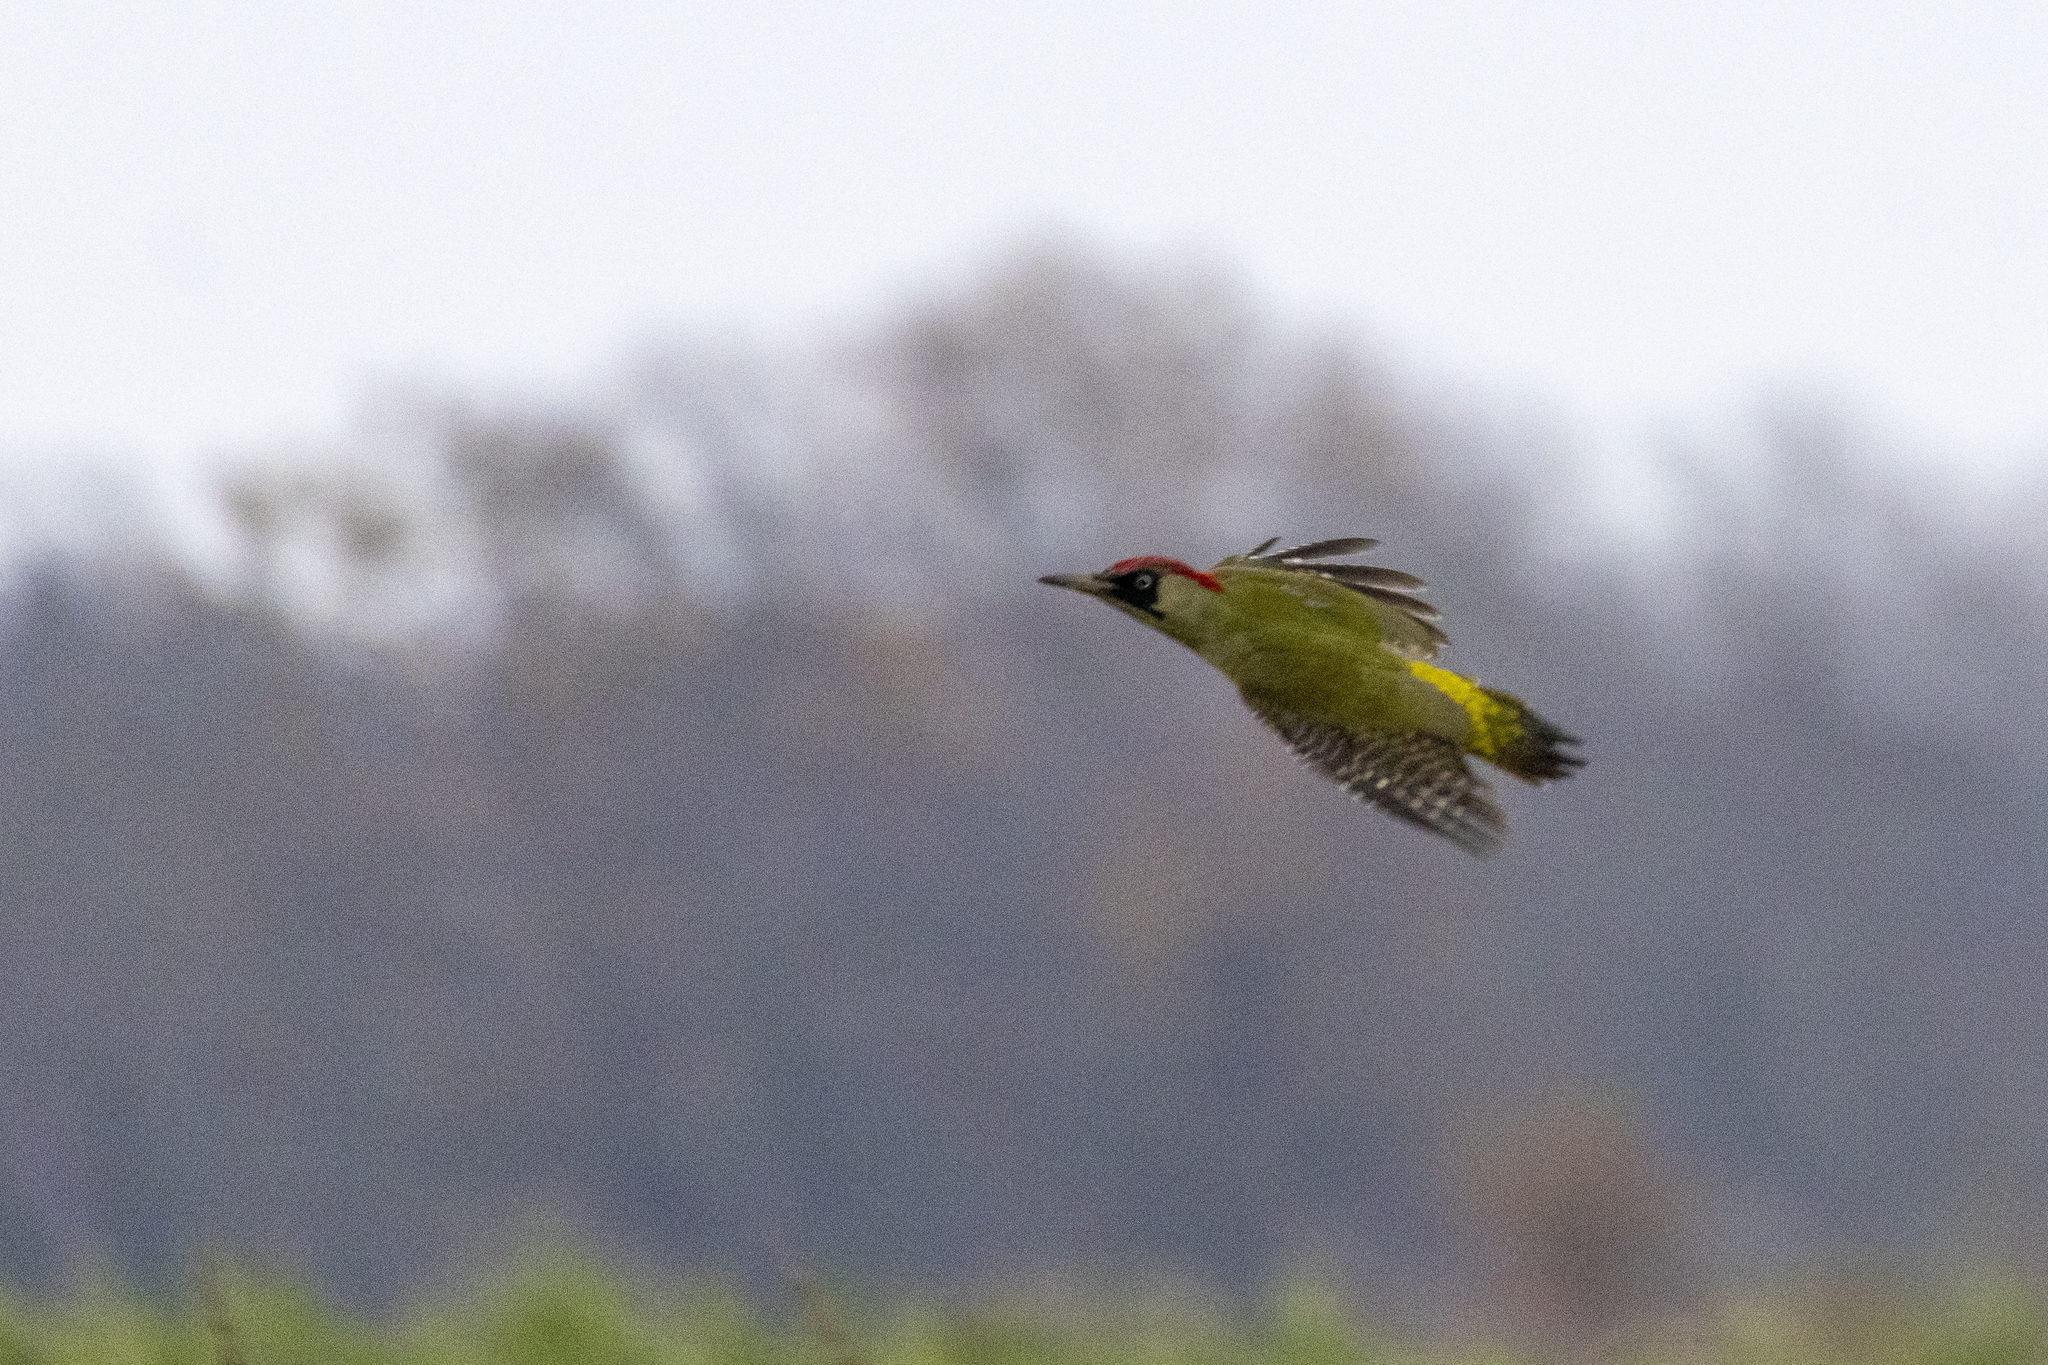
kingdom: Animalia
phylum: Chordata
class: Aves
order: Piciformes
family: Picidae
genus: Picus
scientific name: Picus viridis
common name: European green woodpecker
